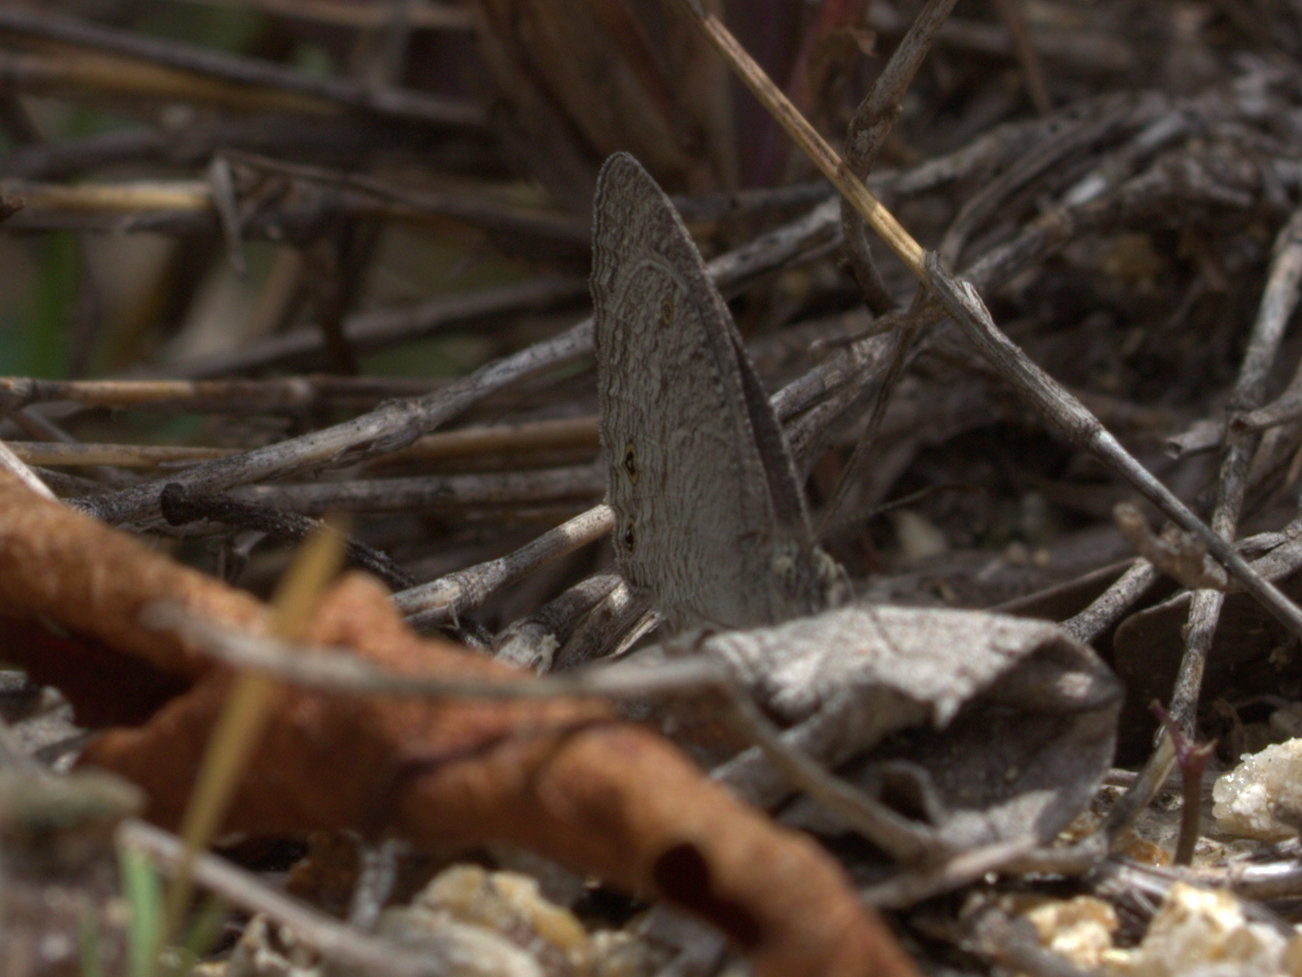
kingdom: Animalia
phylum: Arthropoda
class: Insecta
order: Lepidoptera
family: Nymphalidae
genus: Ypthima
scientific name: Ypthima asterope
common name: African ringlet
